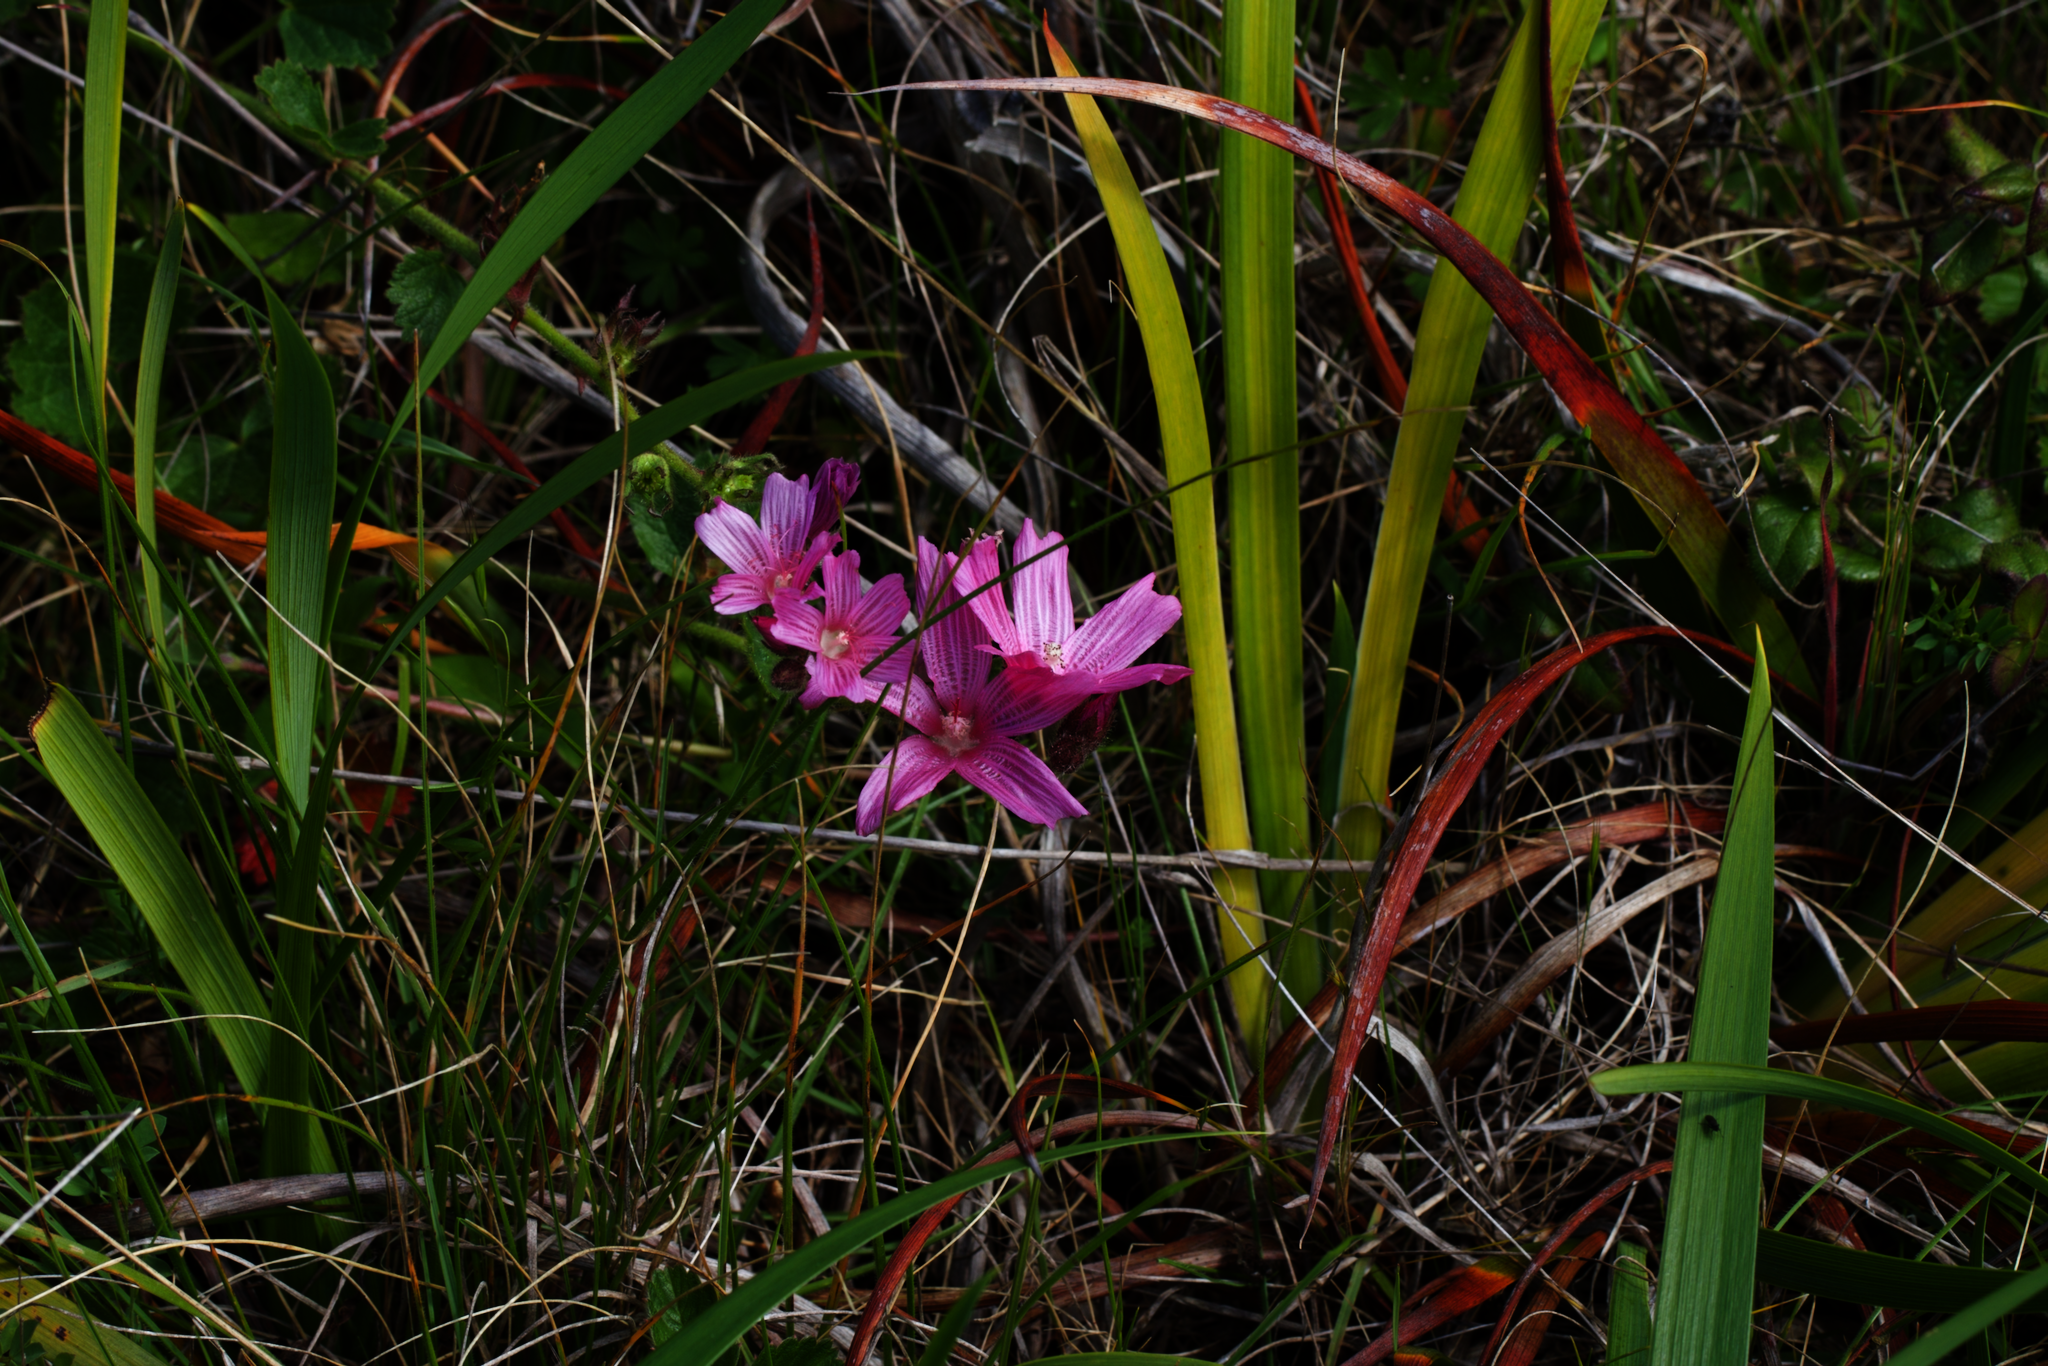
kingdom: Plantae
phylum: Tracheophyta
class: Magnoliopsida
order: Malvales
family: Malvaceae
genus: Sidalcea
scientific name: Sidalcea malviflora
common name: Greek mallow
